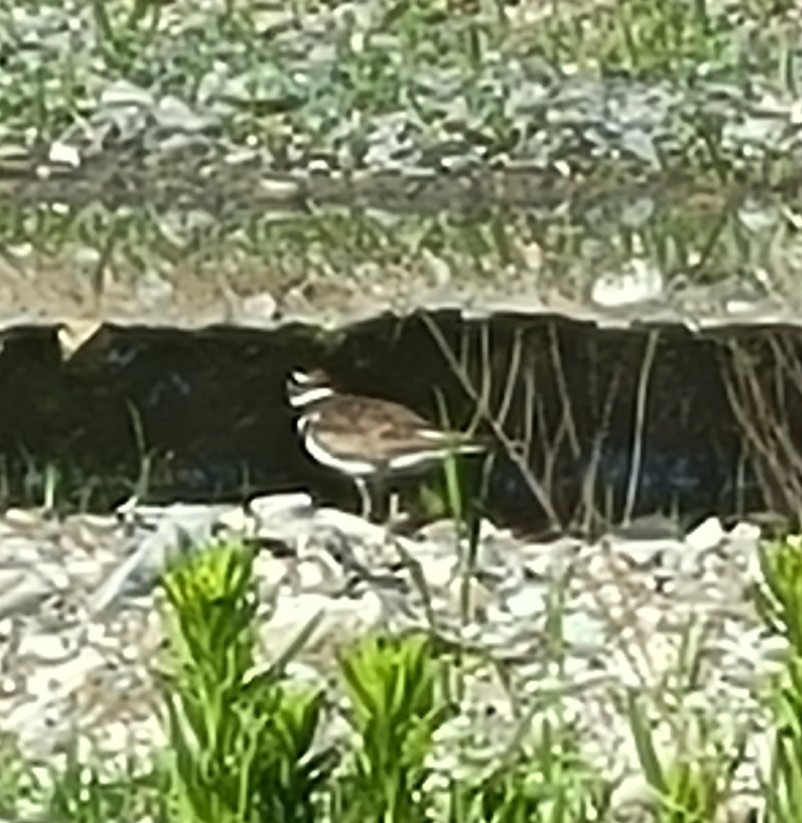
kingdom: Animalia
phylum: Chordata
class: Aves
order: Charadriiformes
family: Charadriidae
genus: Charadrius
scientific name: Charadrius vociferus
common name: Killdeer
